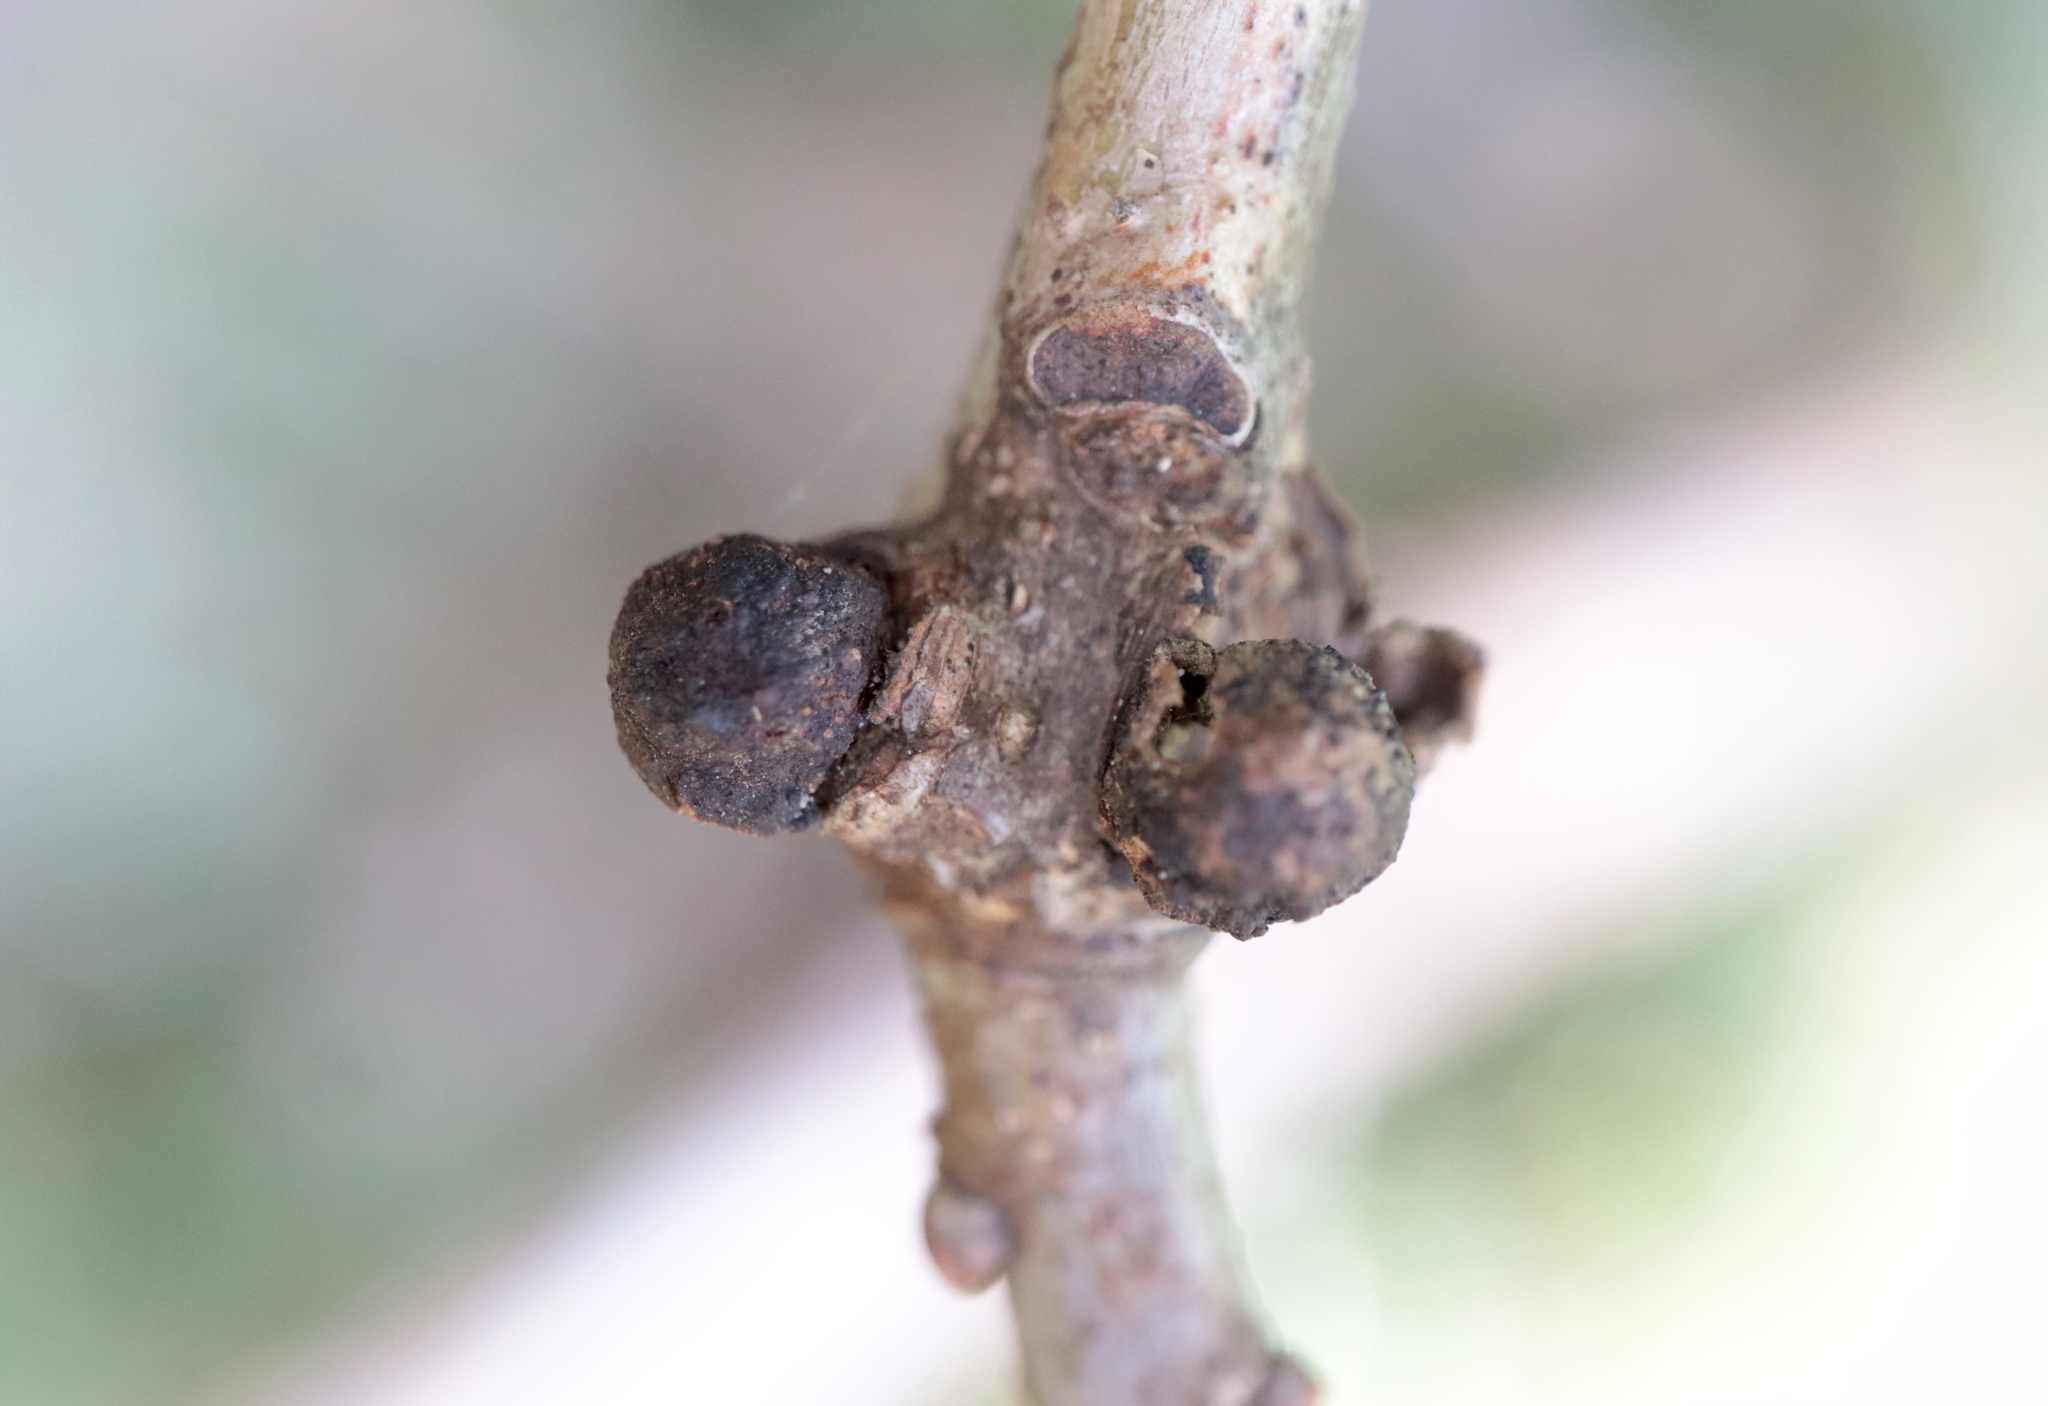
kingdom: Animalia
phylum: Arthropoda
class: Insecta
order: Hymenoptera
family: Cynipidae
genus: Andricus
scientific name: Andricus
